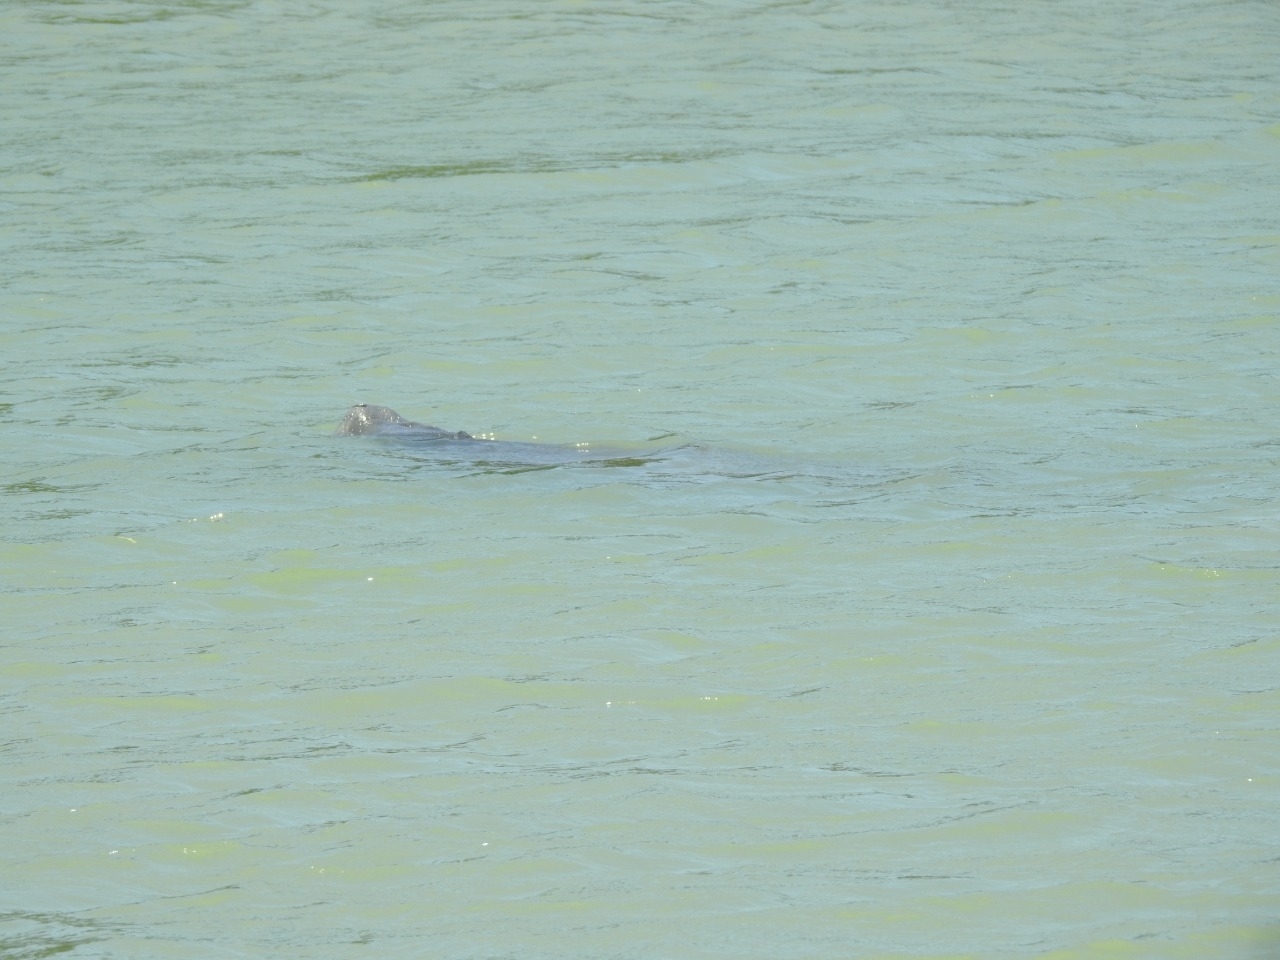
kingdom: Animalia
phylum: Chordata
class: Mammalia
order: Sirenia
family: Trichechidae
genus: Trichechus
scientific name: Trichechus manatus
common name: West indian manatee
